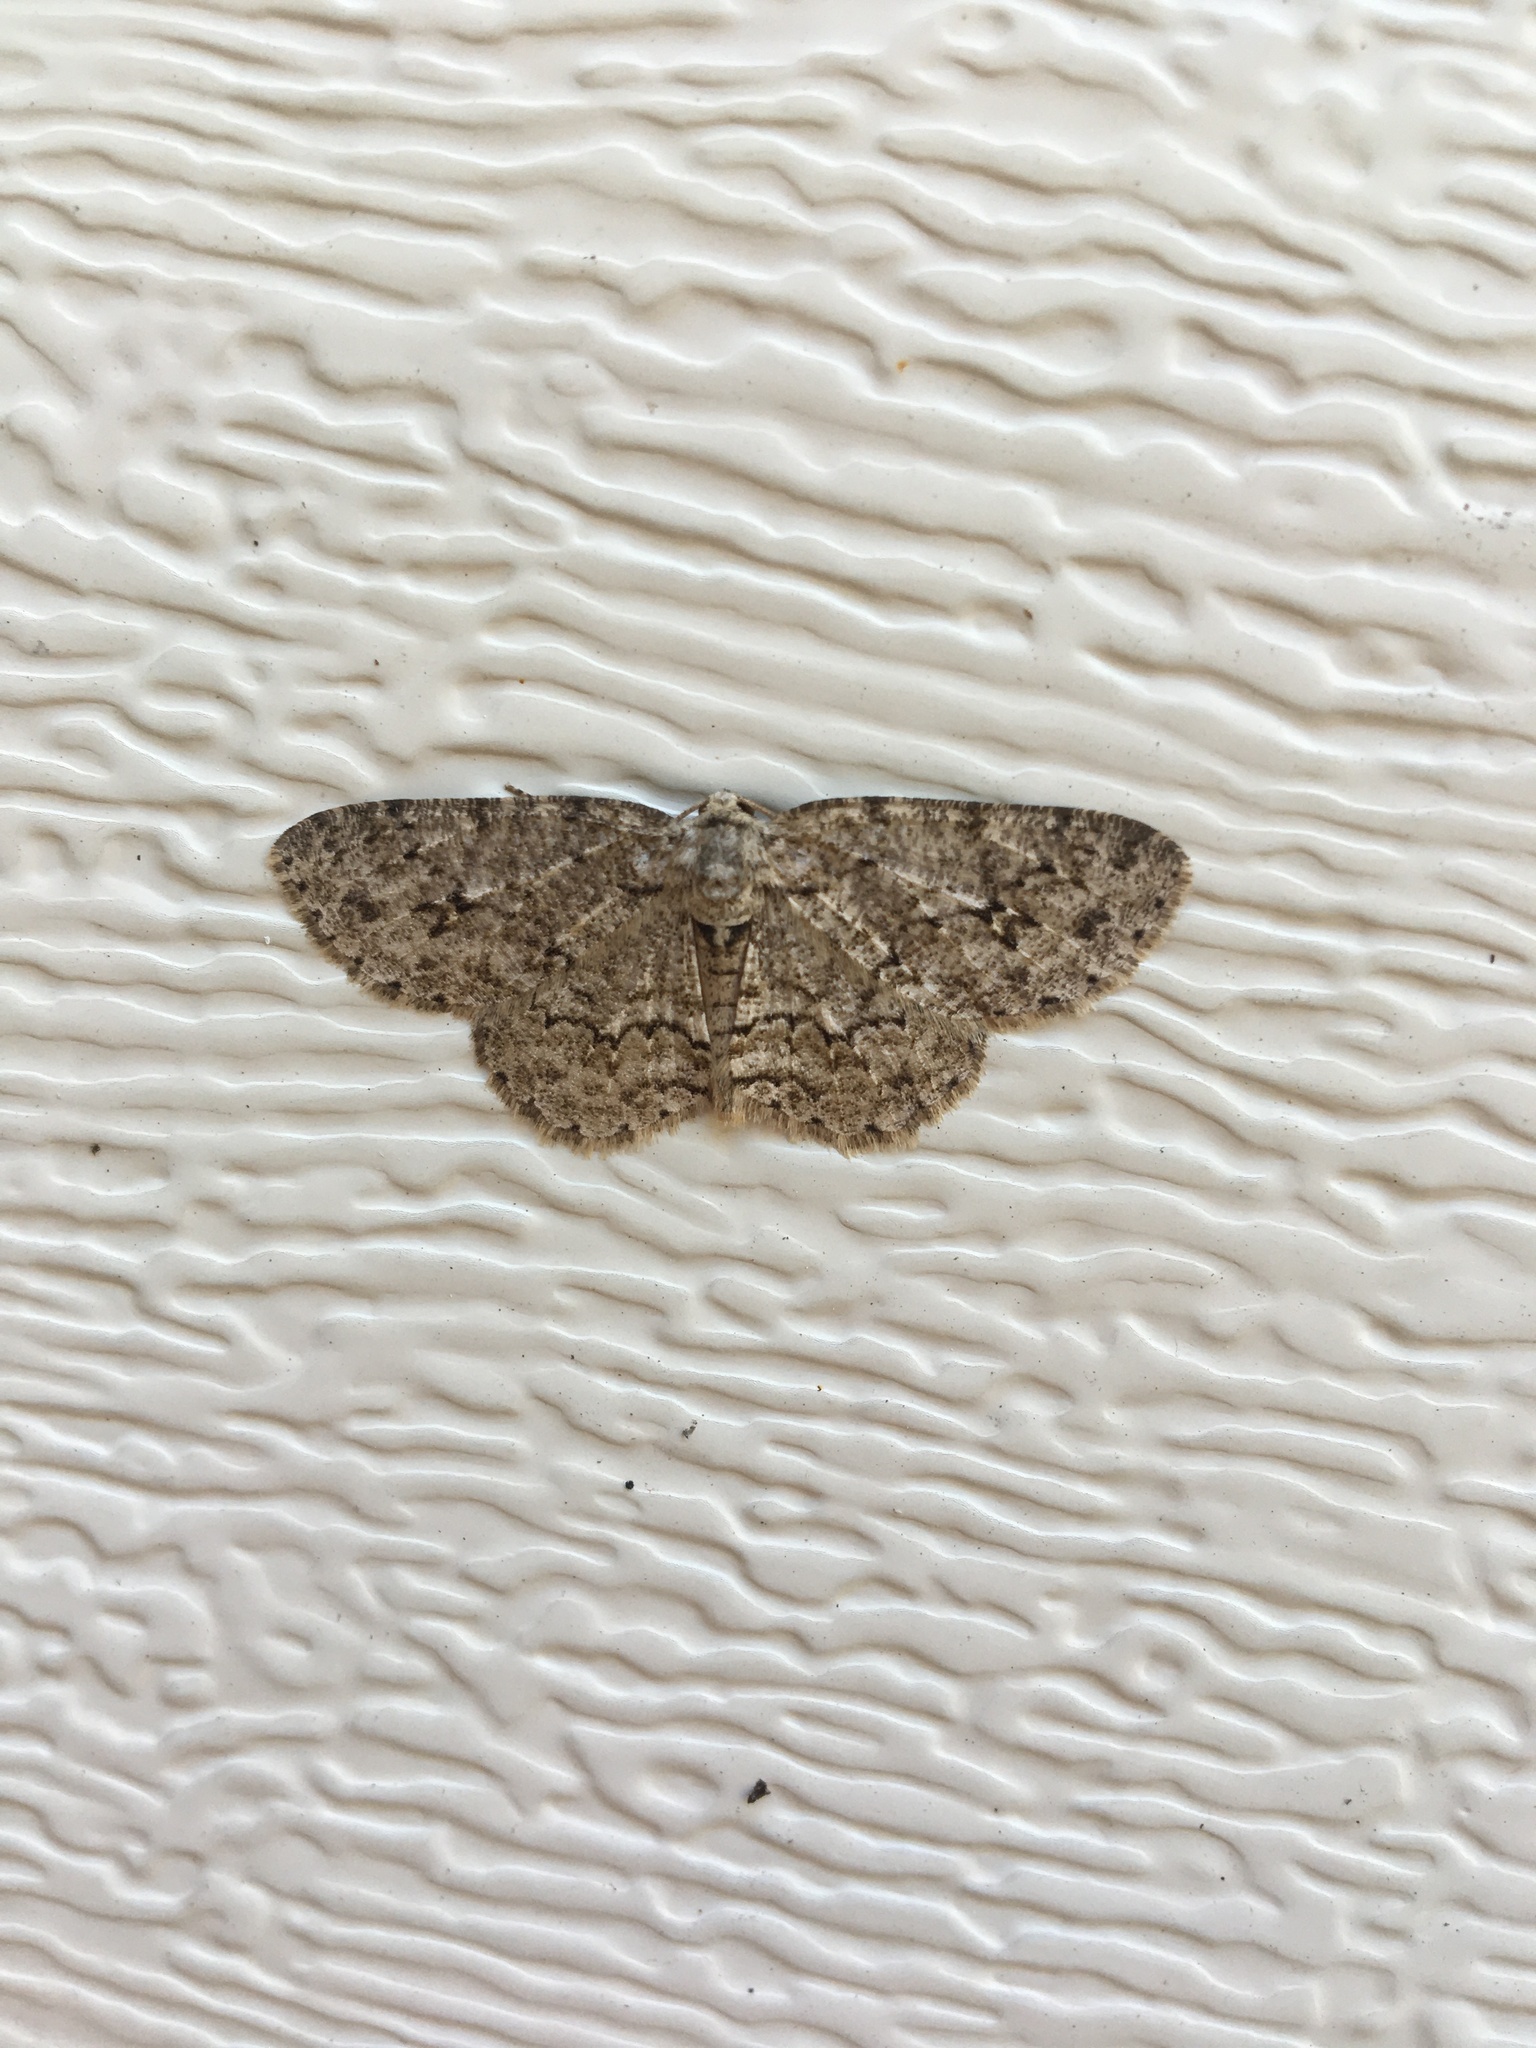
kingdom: Animalia
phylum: Arthropoda
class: Insecta
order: Lepidoptera
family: Geometridae
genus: Ectropis
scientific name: Ectropis crepuscularia
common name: Engrailed
